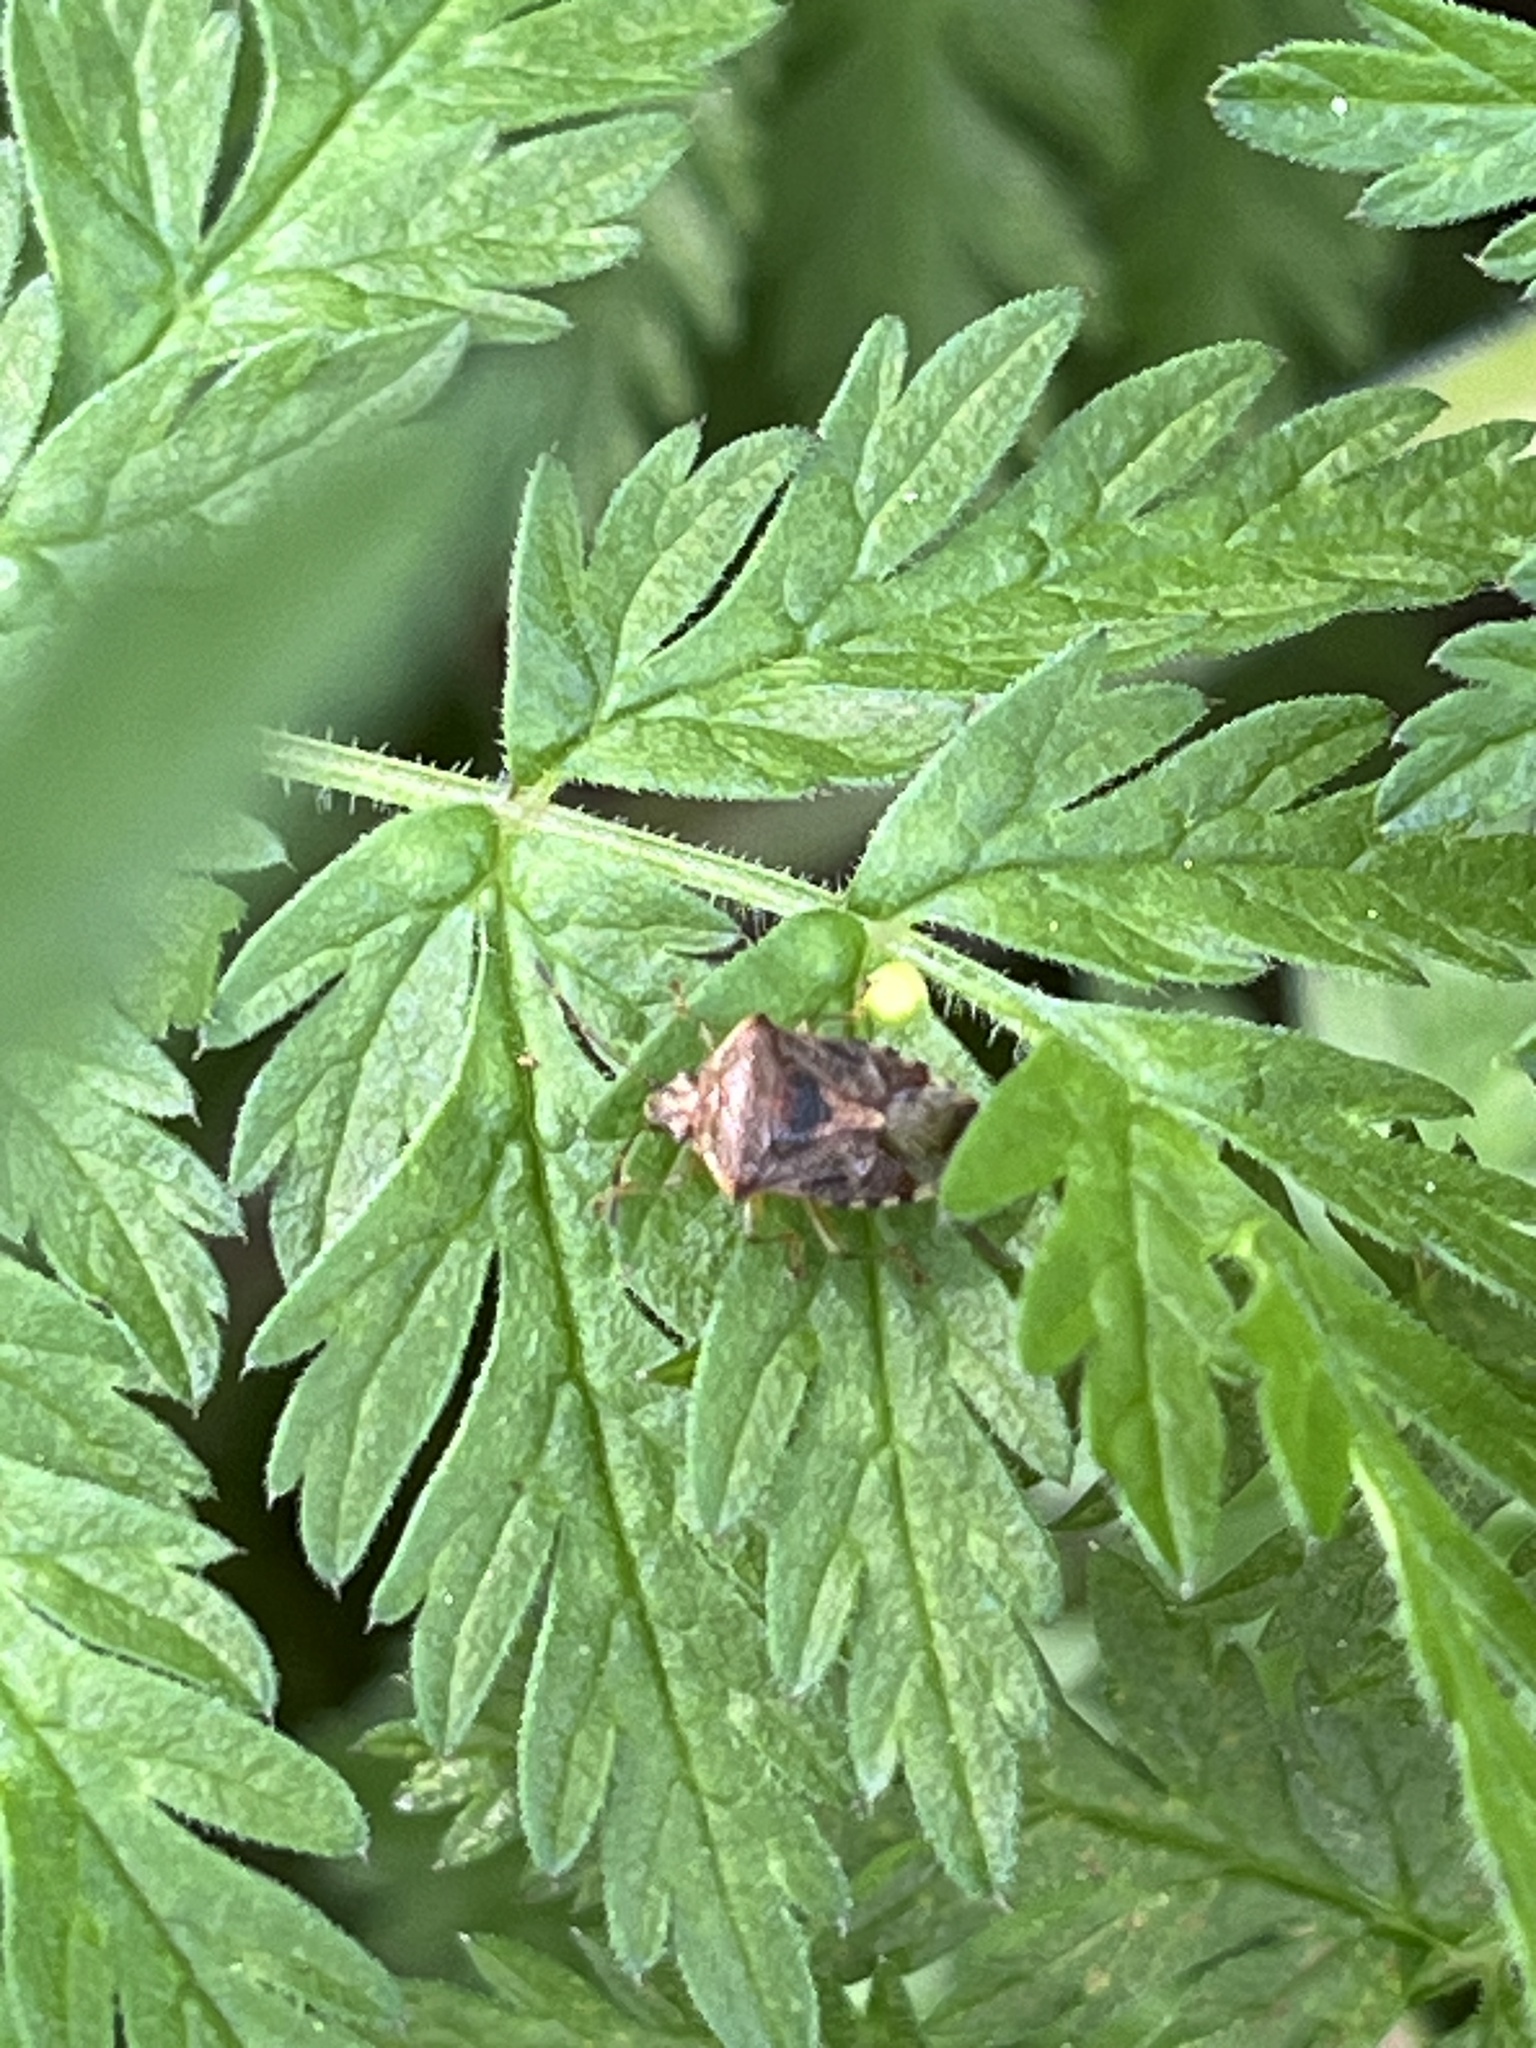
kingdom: Animalia
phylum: Arthropoda
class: Insecta
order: Hemiptera
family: Acanthosomatidae
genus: Elasmucha
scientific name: Elasmucha grisea
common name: Parent bug
